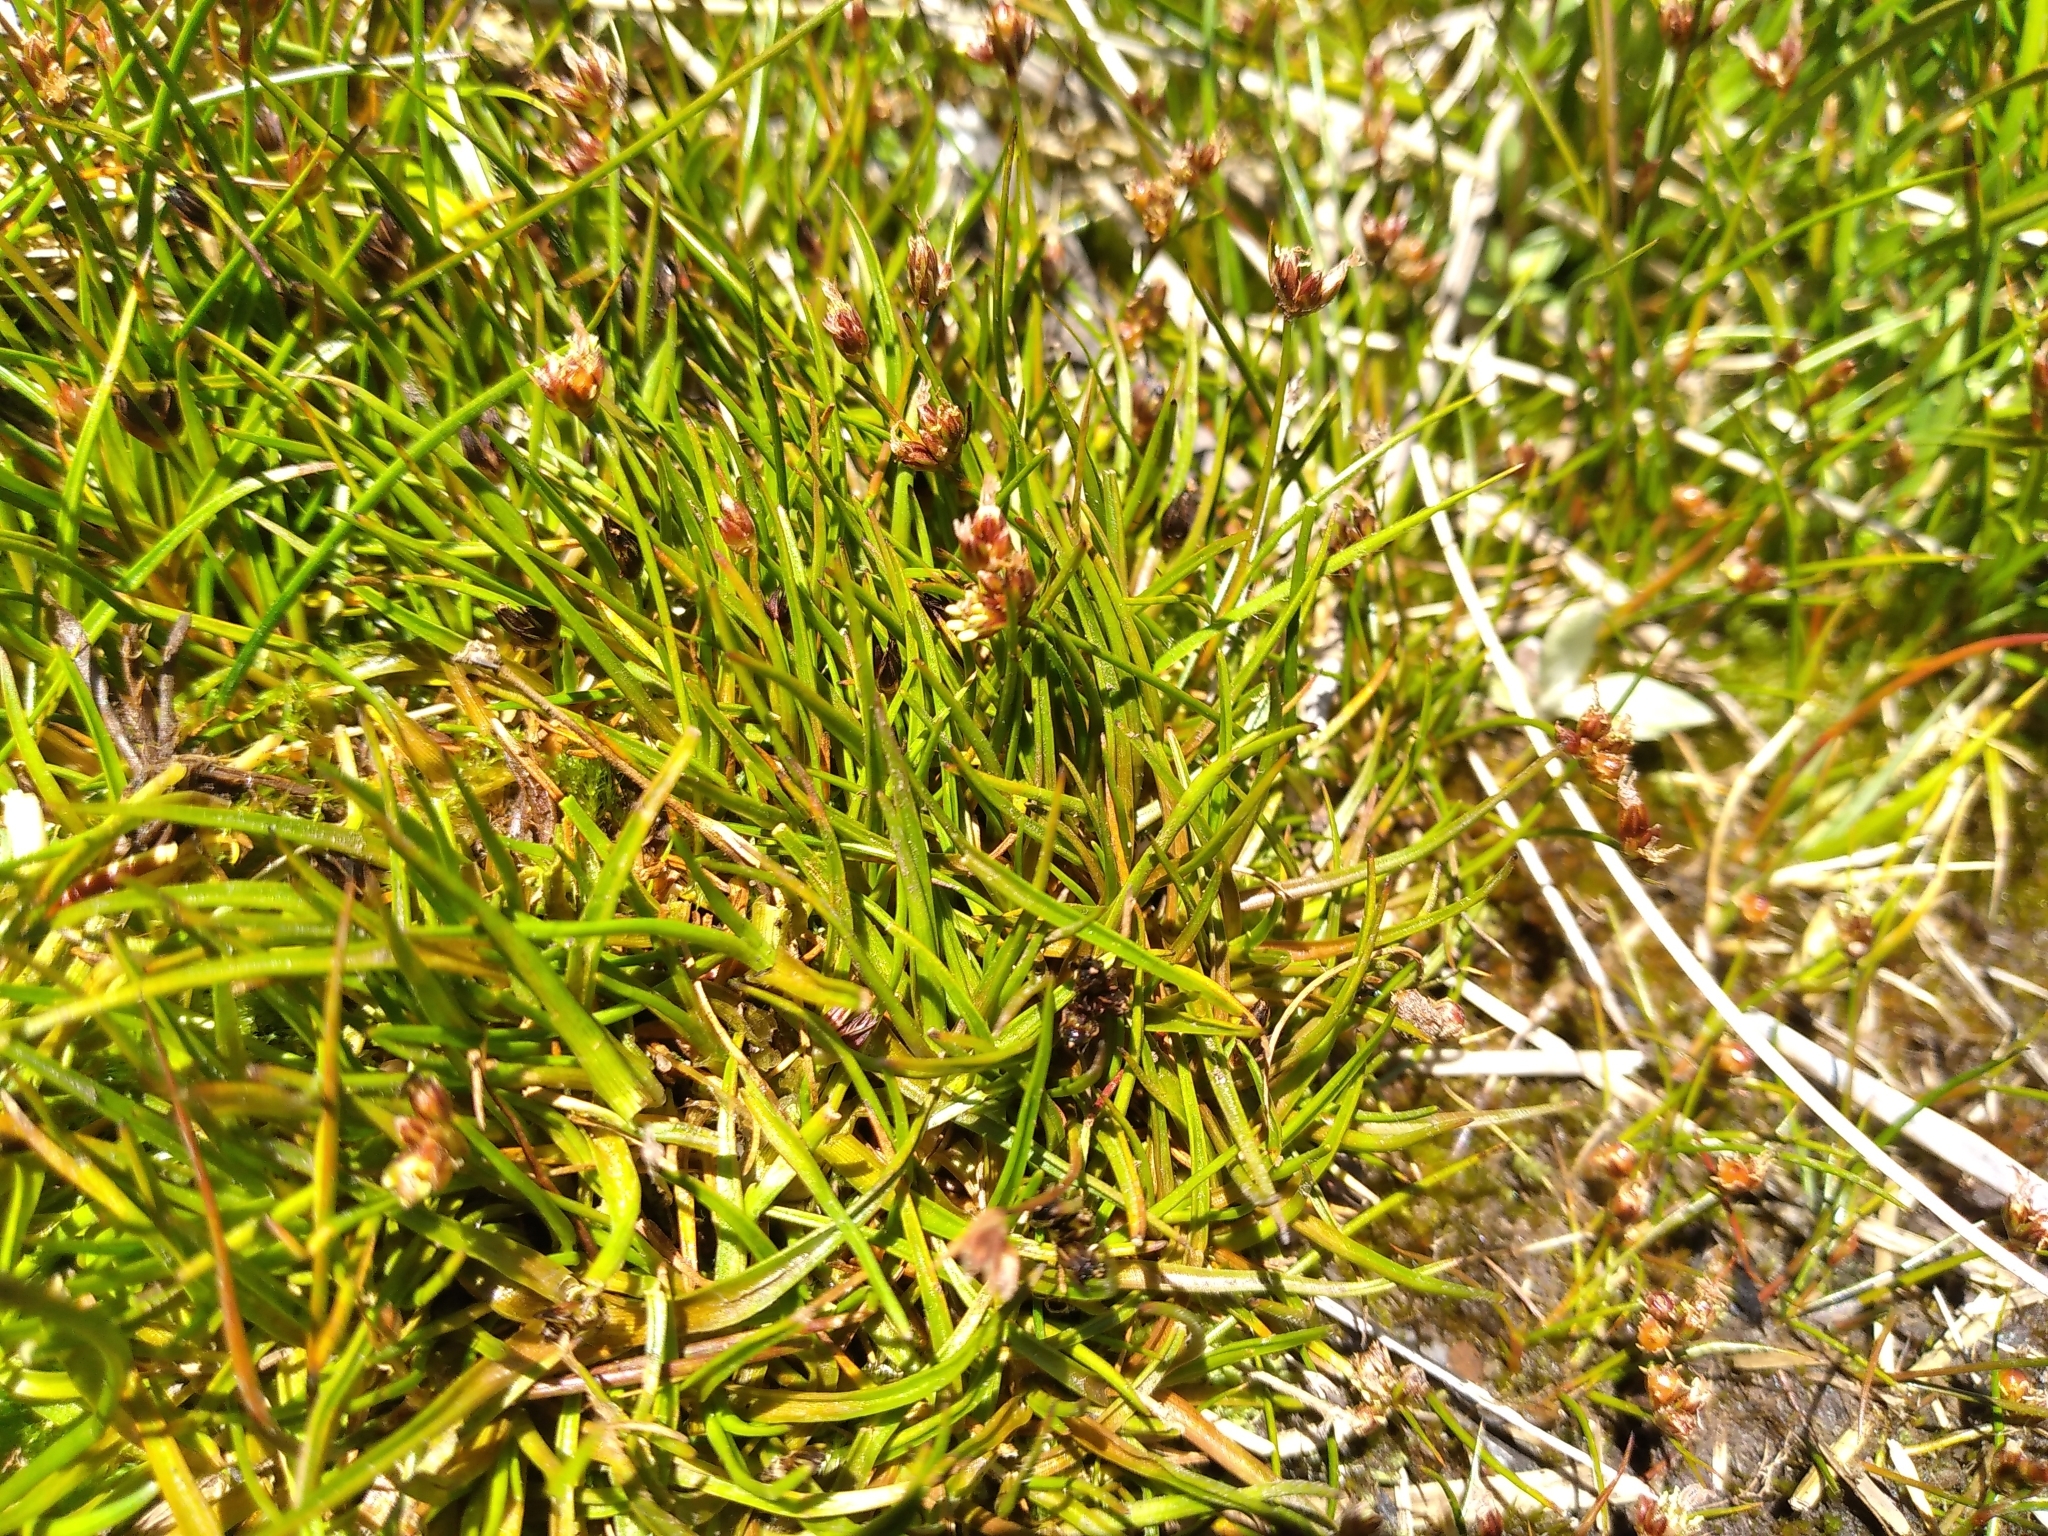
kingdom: Plantae
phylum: Tracheophyta
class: Liliopsida
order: Poales
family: Juncaceae
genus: Juncus
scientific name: Juncus antarcticus
